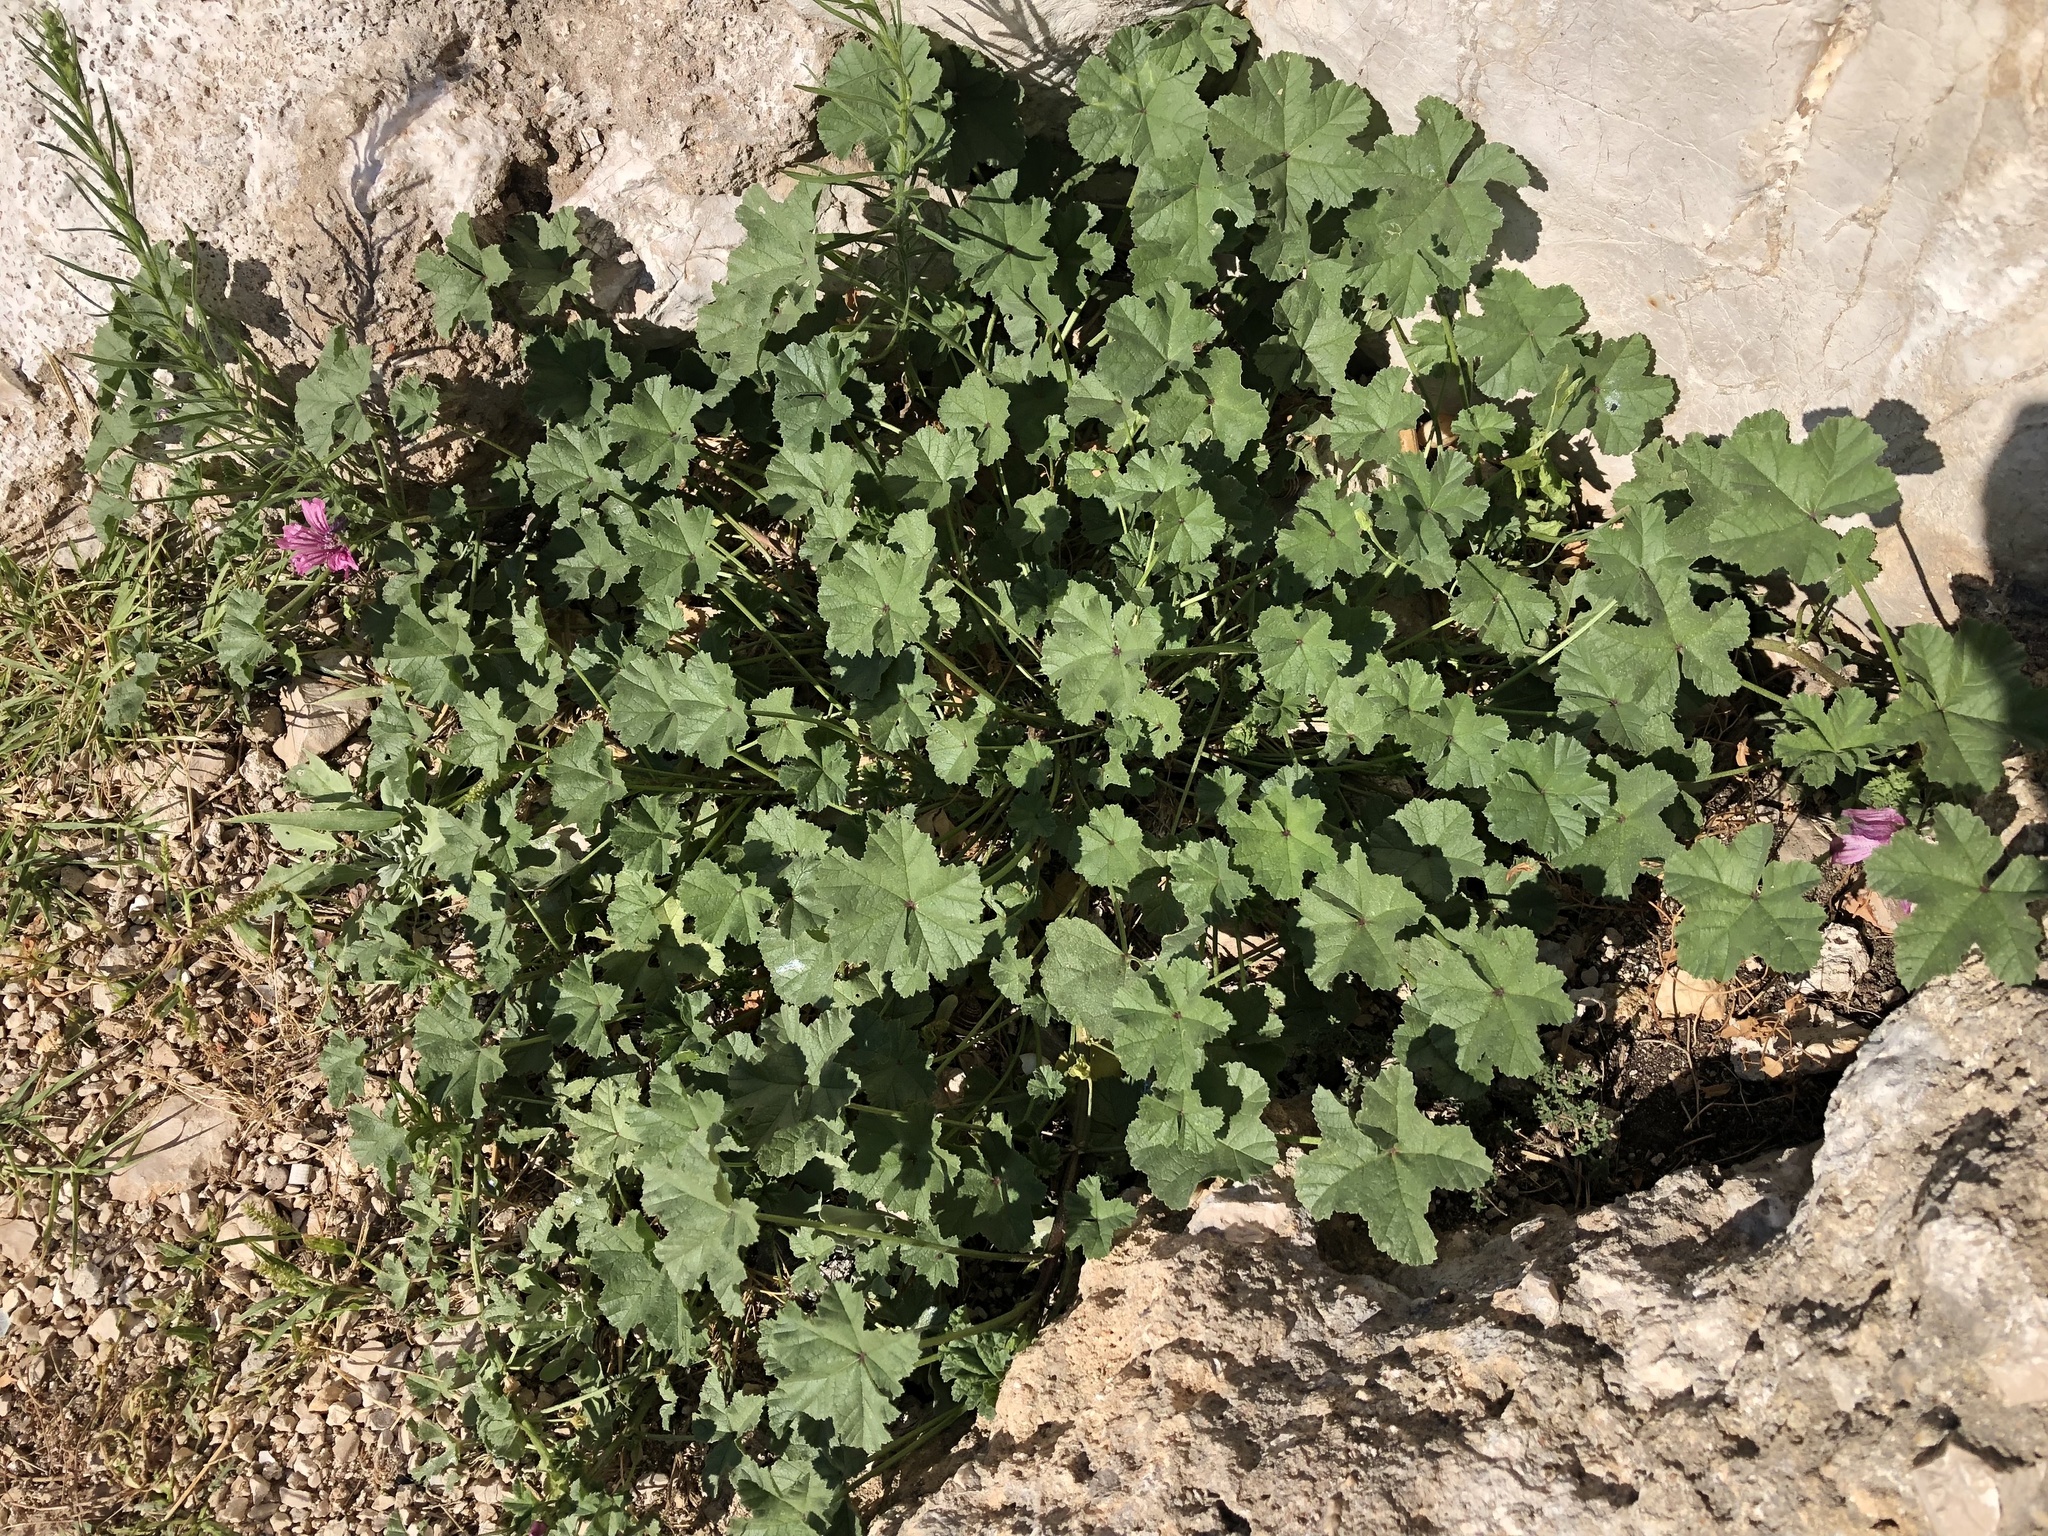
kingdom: Plantae
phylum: Tracheophyta
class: Magnoliopsida
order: Malvales
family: Malvaceae
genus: Malva
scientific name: Malva sylvestris
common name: Common mallow
